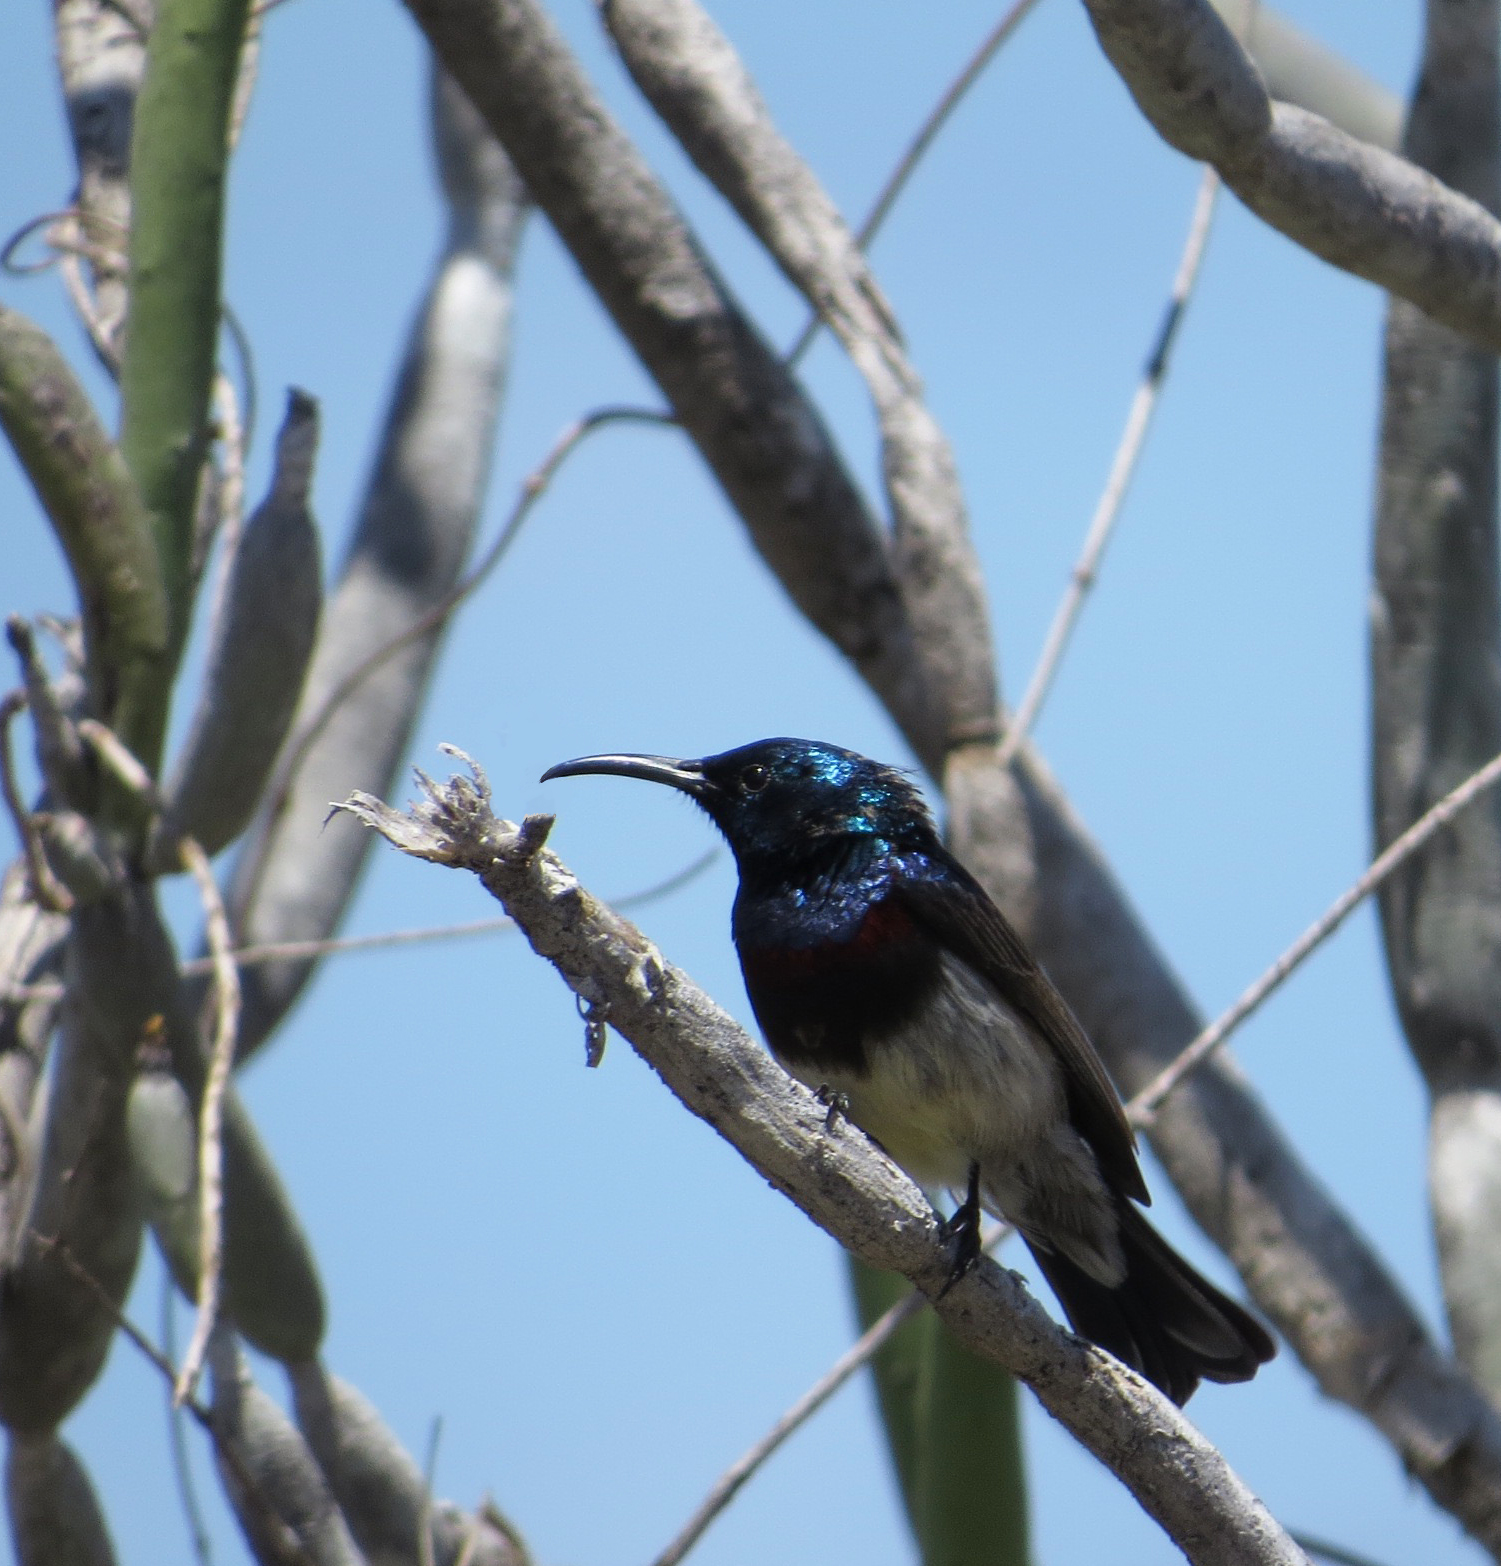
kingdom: Animalia
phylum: Chordata
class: Aves
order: Passeriformes
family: Nectariniidae
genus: Cinnyris
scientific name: Cinnyris sovimanga
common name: Souimanga sunbird
